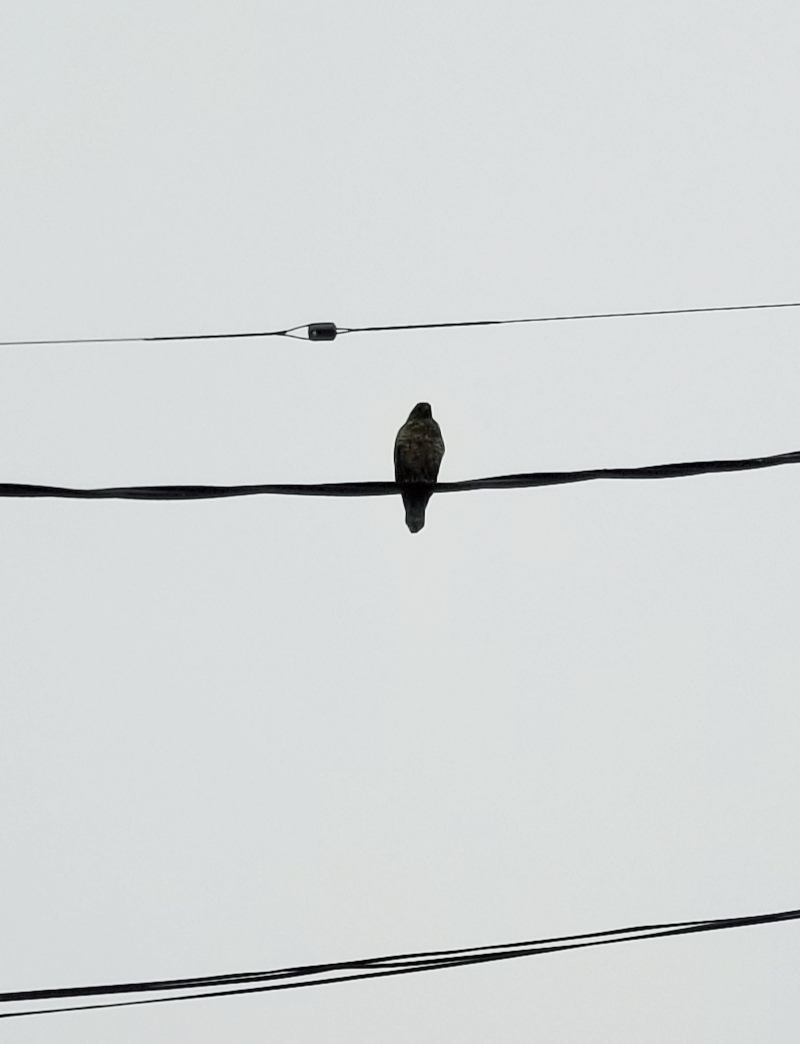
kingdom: Animalia
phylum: Chordata
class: Aves
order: Accipitriformes
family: Accipitridae
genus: Buteo
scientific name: Buteo lineatus
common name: Red-shouldered hawk
